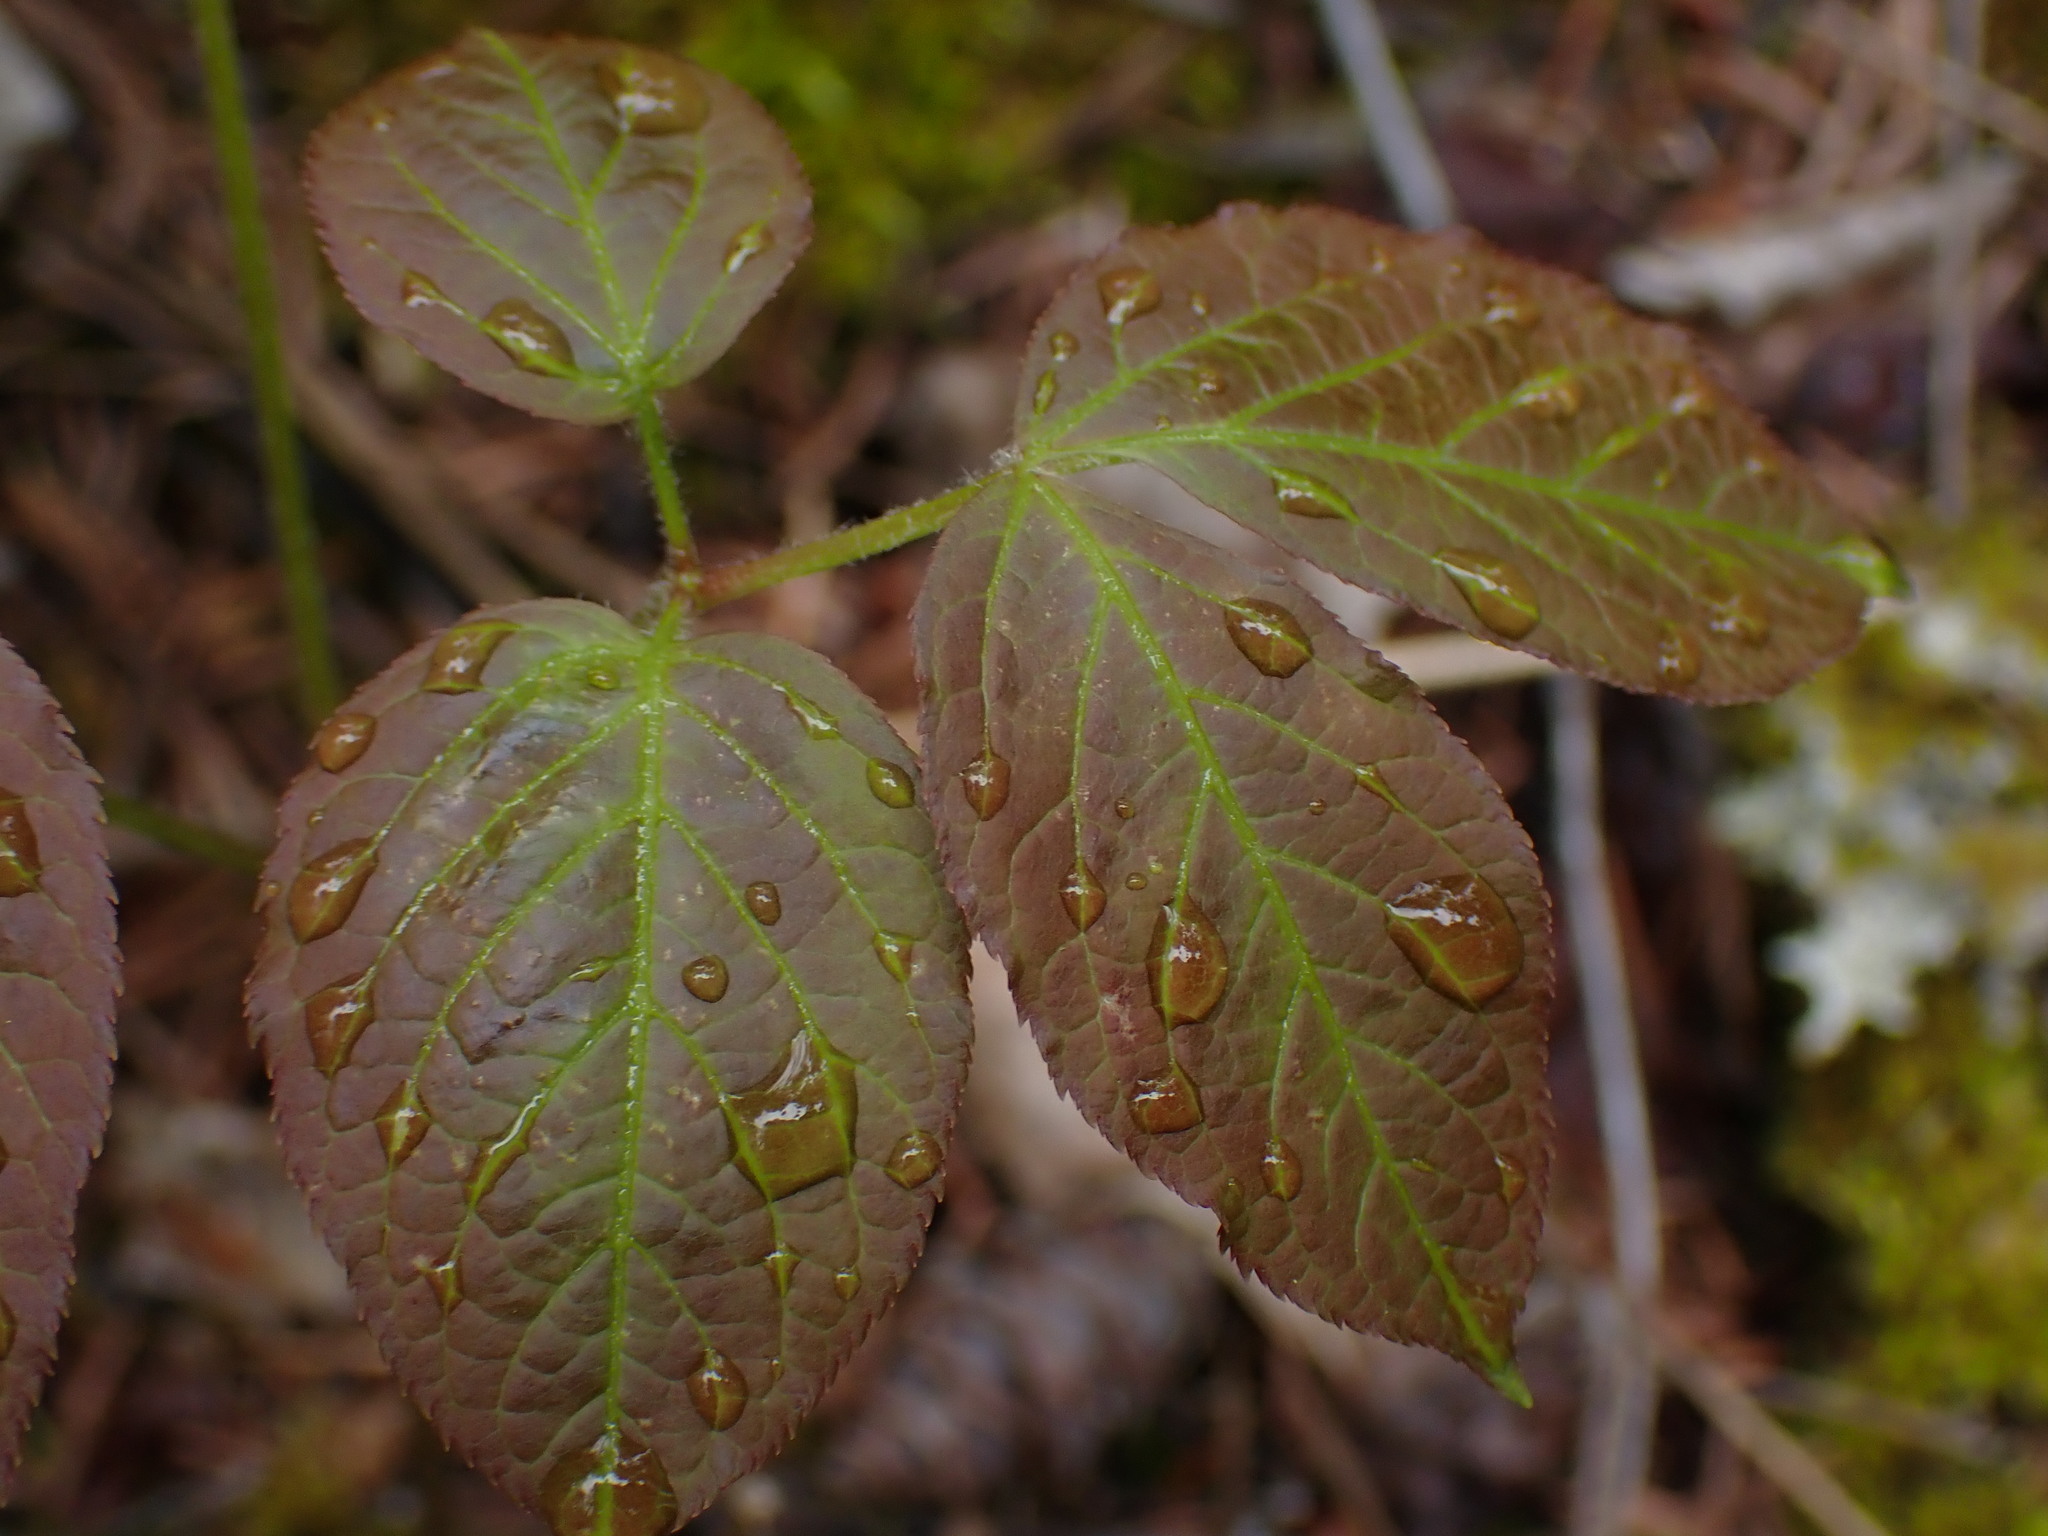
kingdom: Plantae
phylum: Tracheophyta
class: Magnoliopsida
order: Apiales
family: Araliaceae
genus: Aralia
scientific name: Aralia nudicaulis
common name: Wild sarsaparilla
